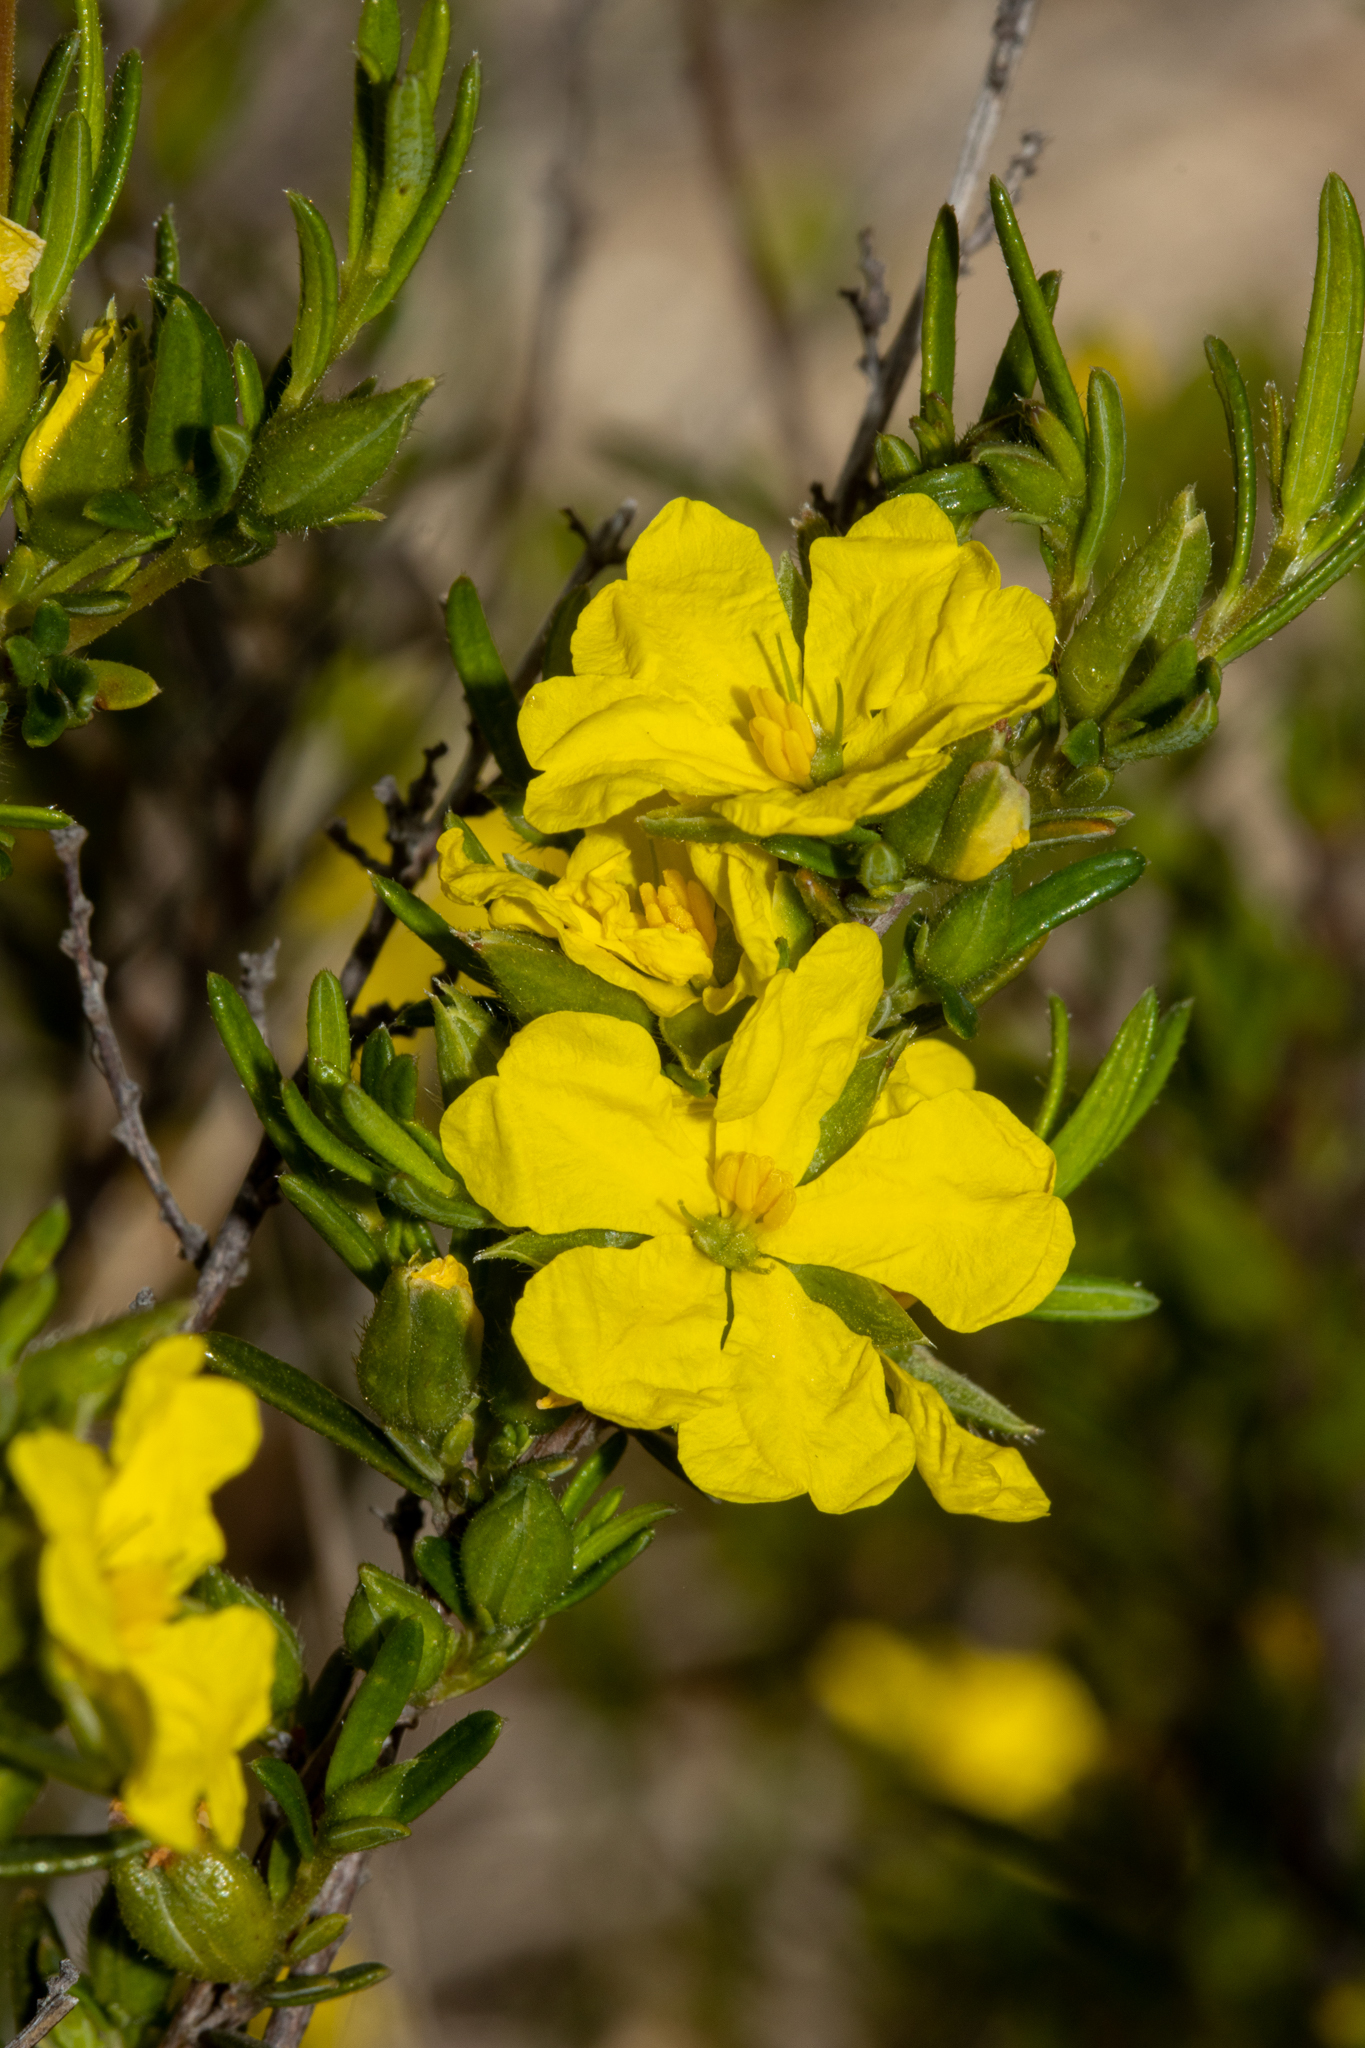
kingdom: Plantae
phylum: Tracheophyta
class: Magnoliopsida
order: Dilleniales
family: Dilleniaceae
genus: Hibbertia
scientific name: Hibbertia riparia
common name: Erect guinea-flower
